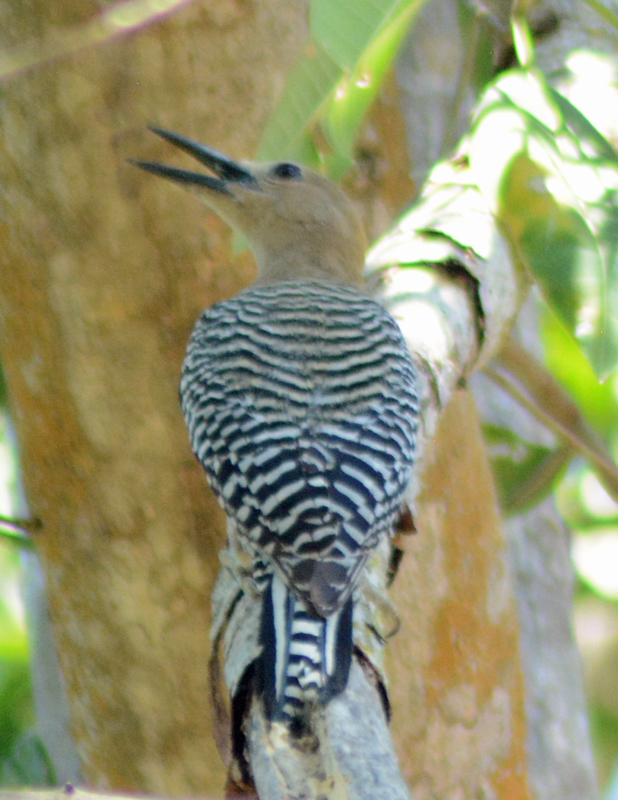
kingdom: Animalia
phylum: Chordata
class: Aves
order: Piciformes
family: Picidae
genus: Melanerpes
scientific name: Melanerpes uropygialis
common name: Gila woodpecker
